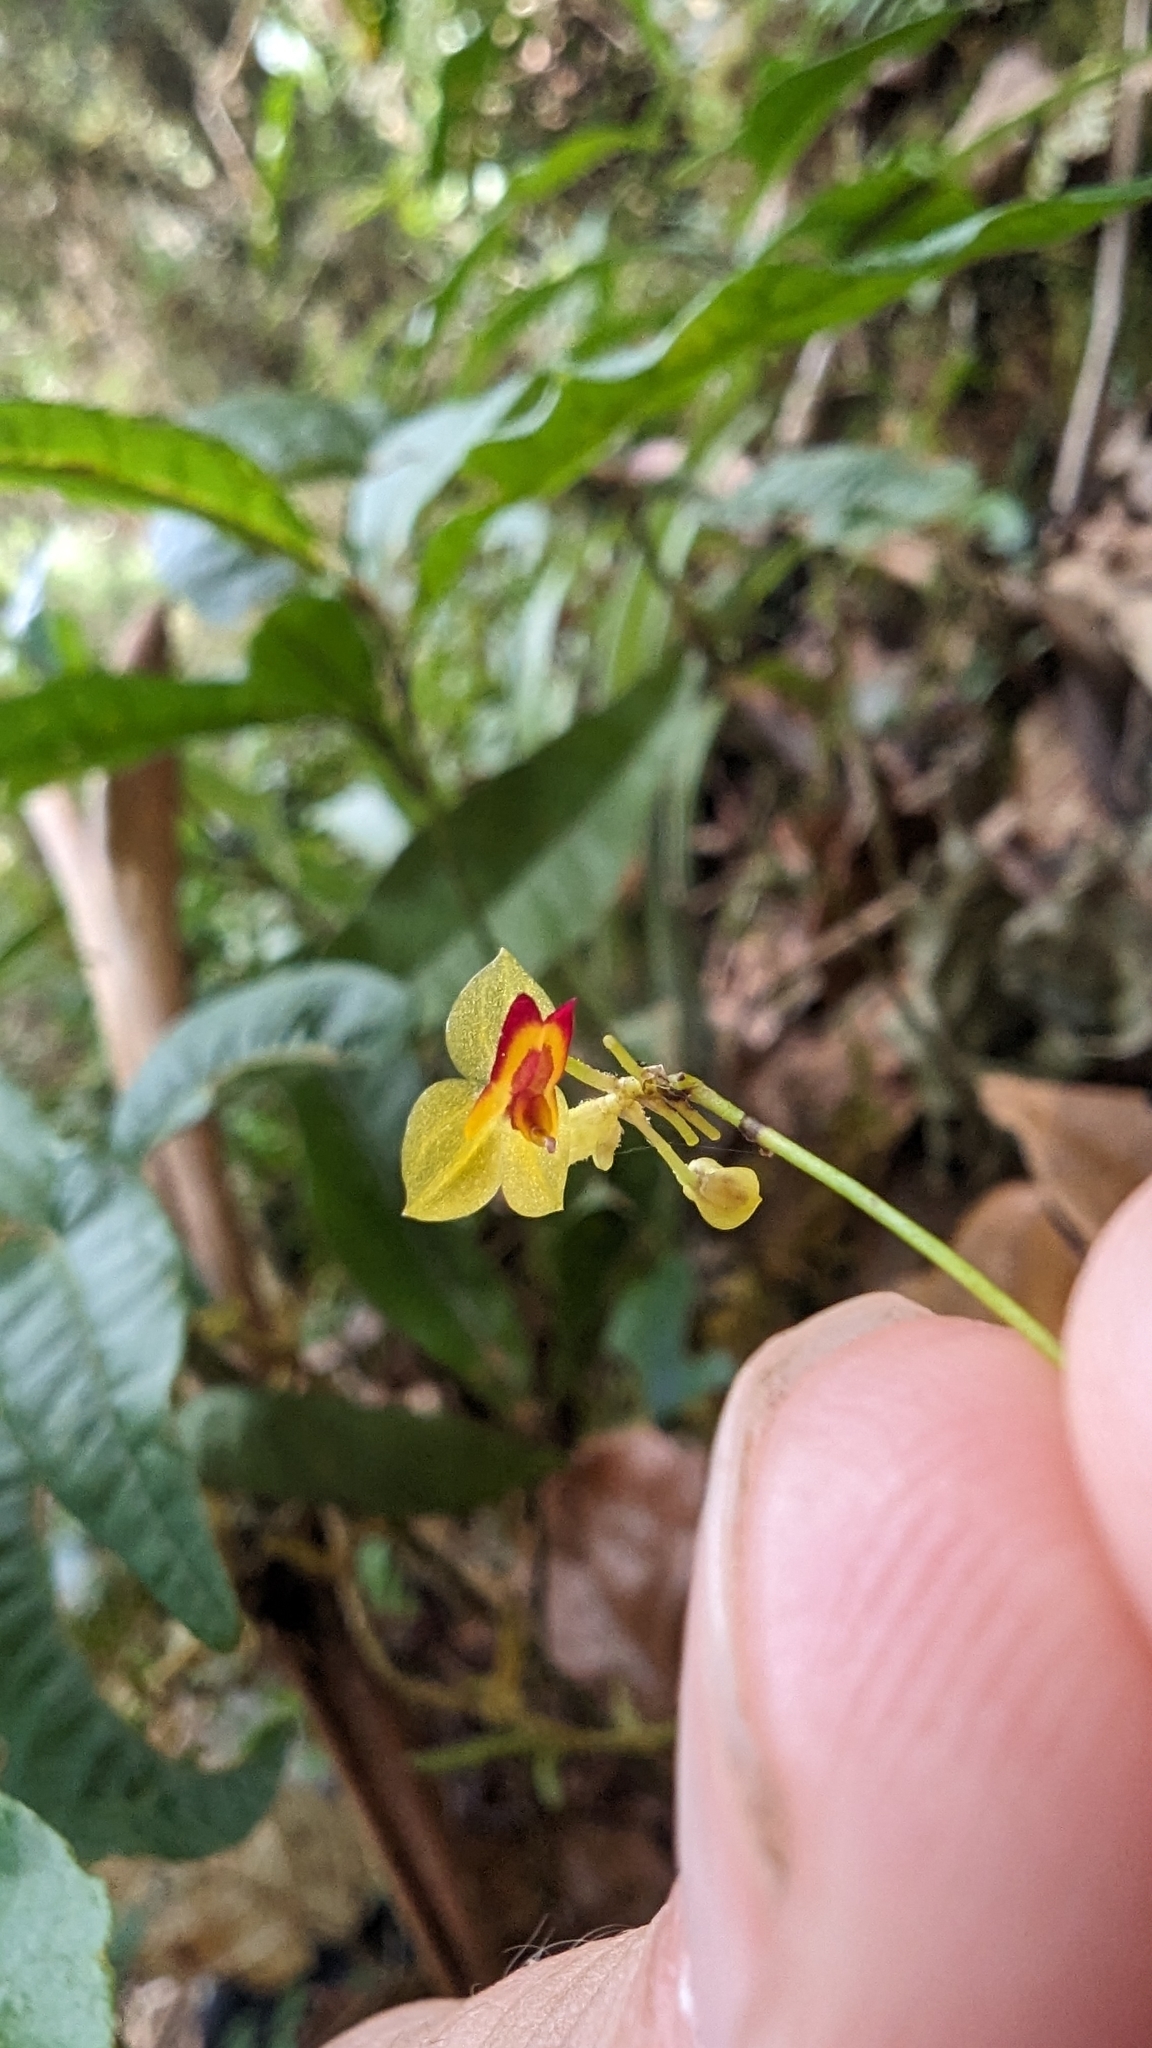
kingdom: Plantae
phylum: Tracheophyta
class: Liliopsida
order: Asparagales
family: Orchidaceae
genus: Lepanthes
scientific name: Lepanthes poasensis
